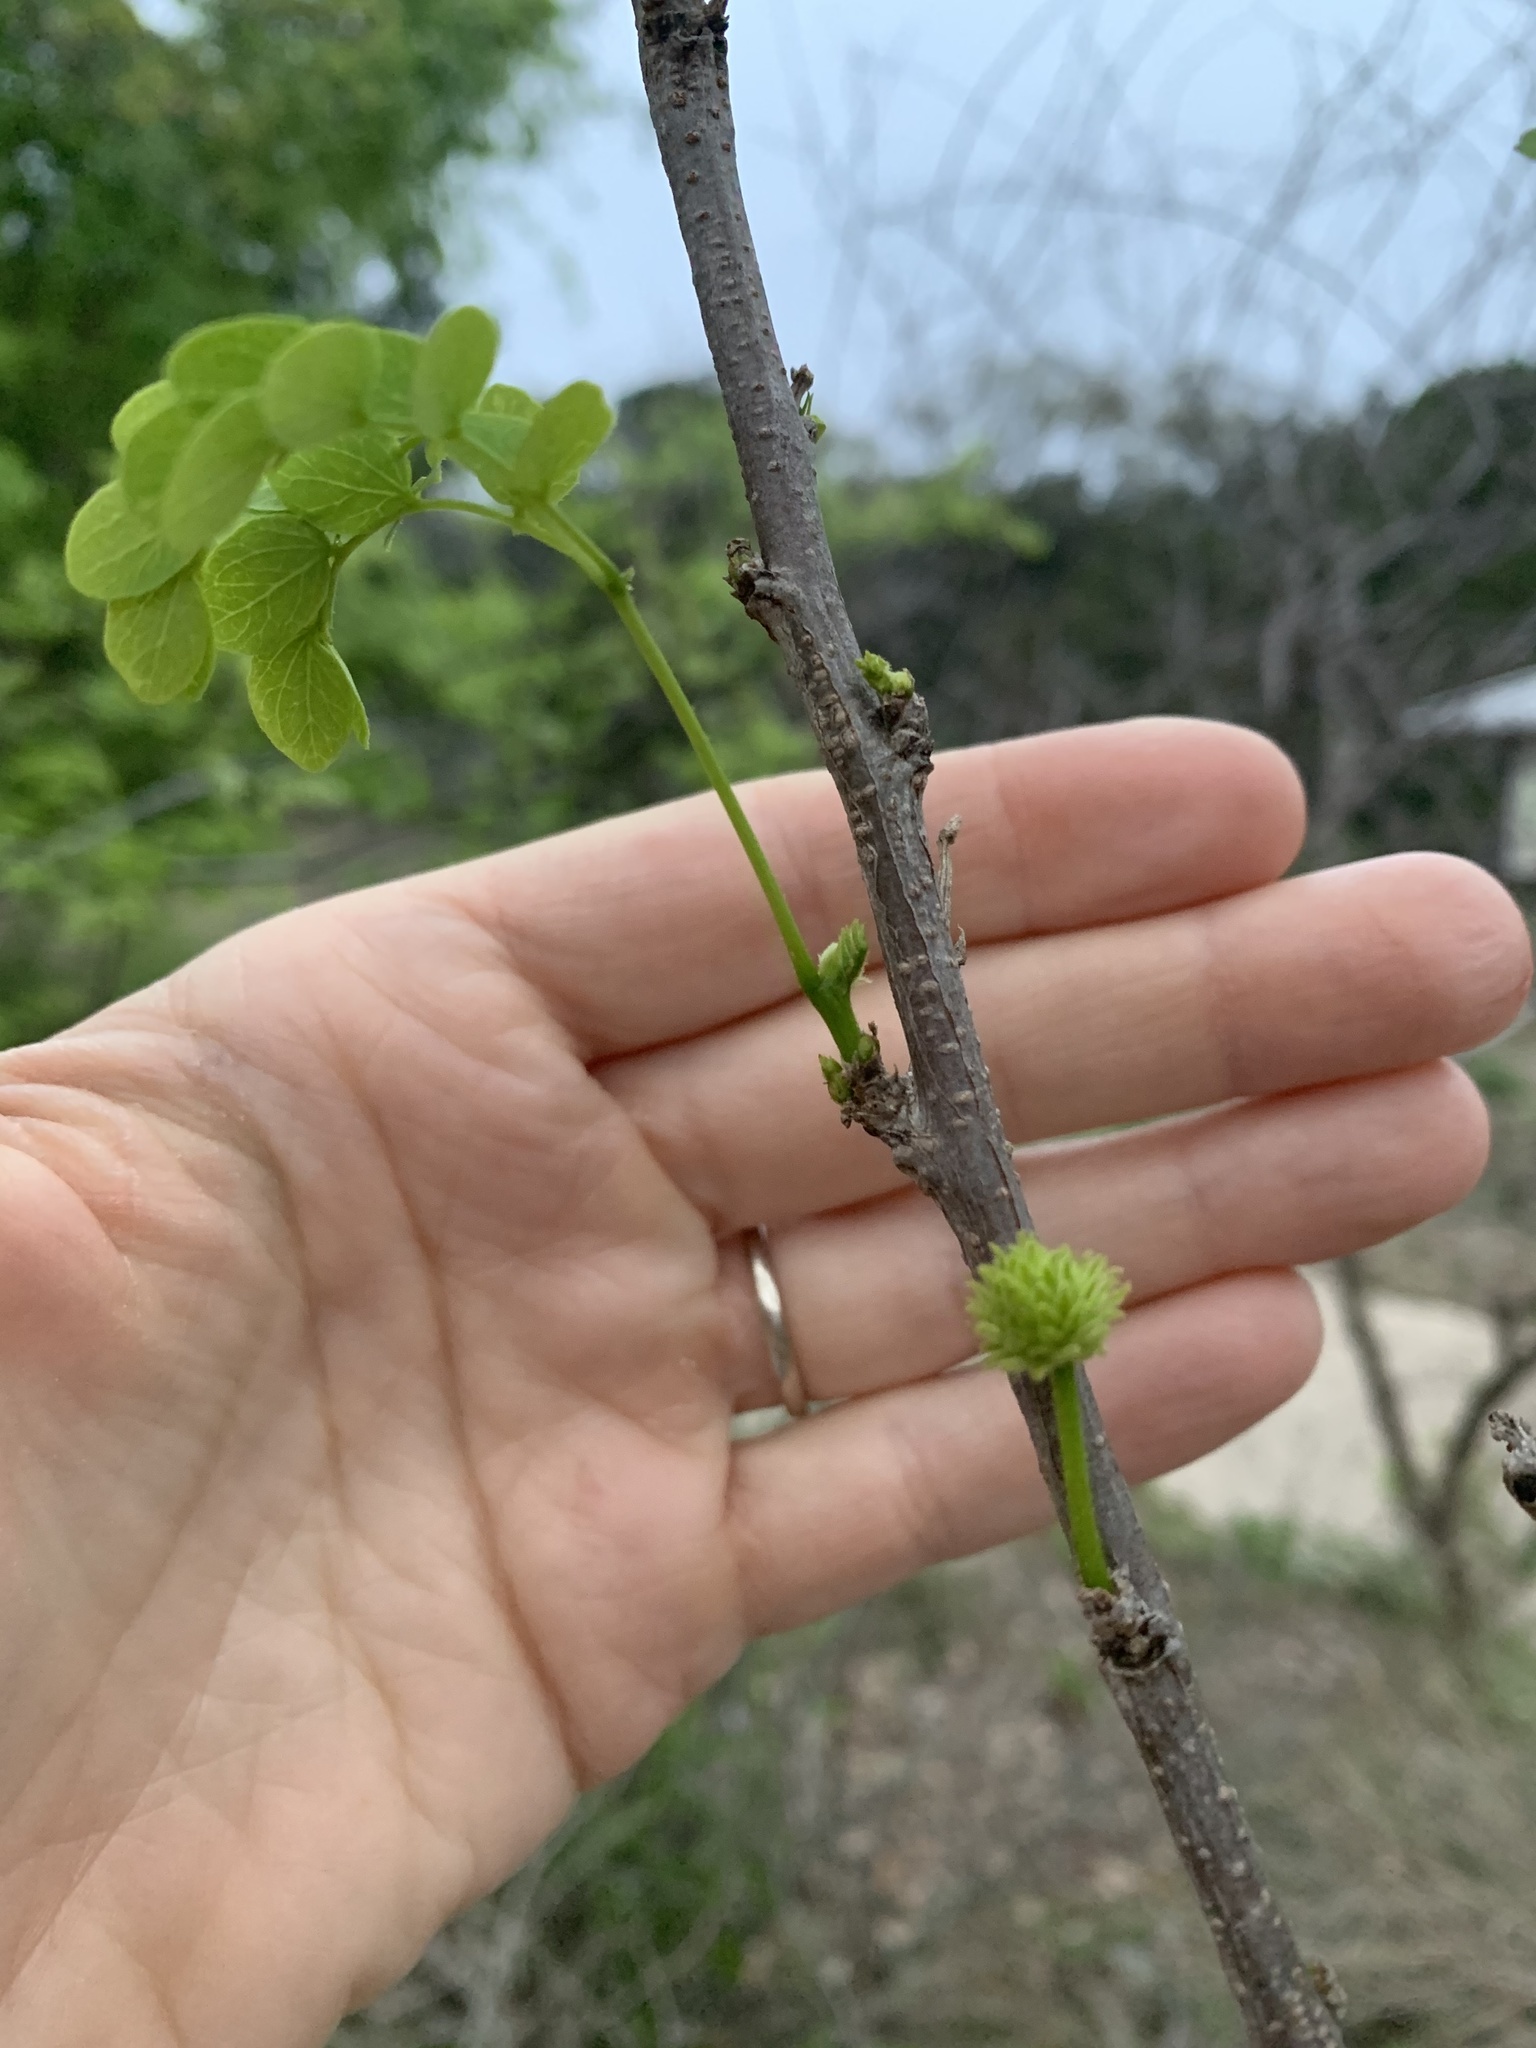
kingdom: Plantae
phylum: Tracheophyta
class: Magnoliopsida
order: Fabales
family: Fabaceae
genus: Leucaena
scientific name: Leucaena retusa
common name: Littleleaf leadtree
